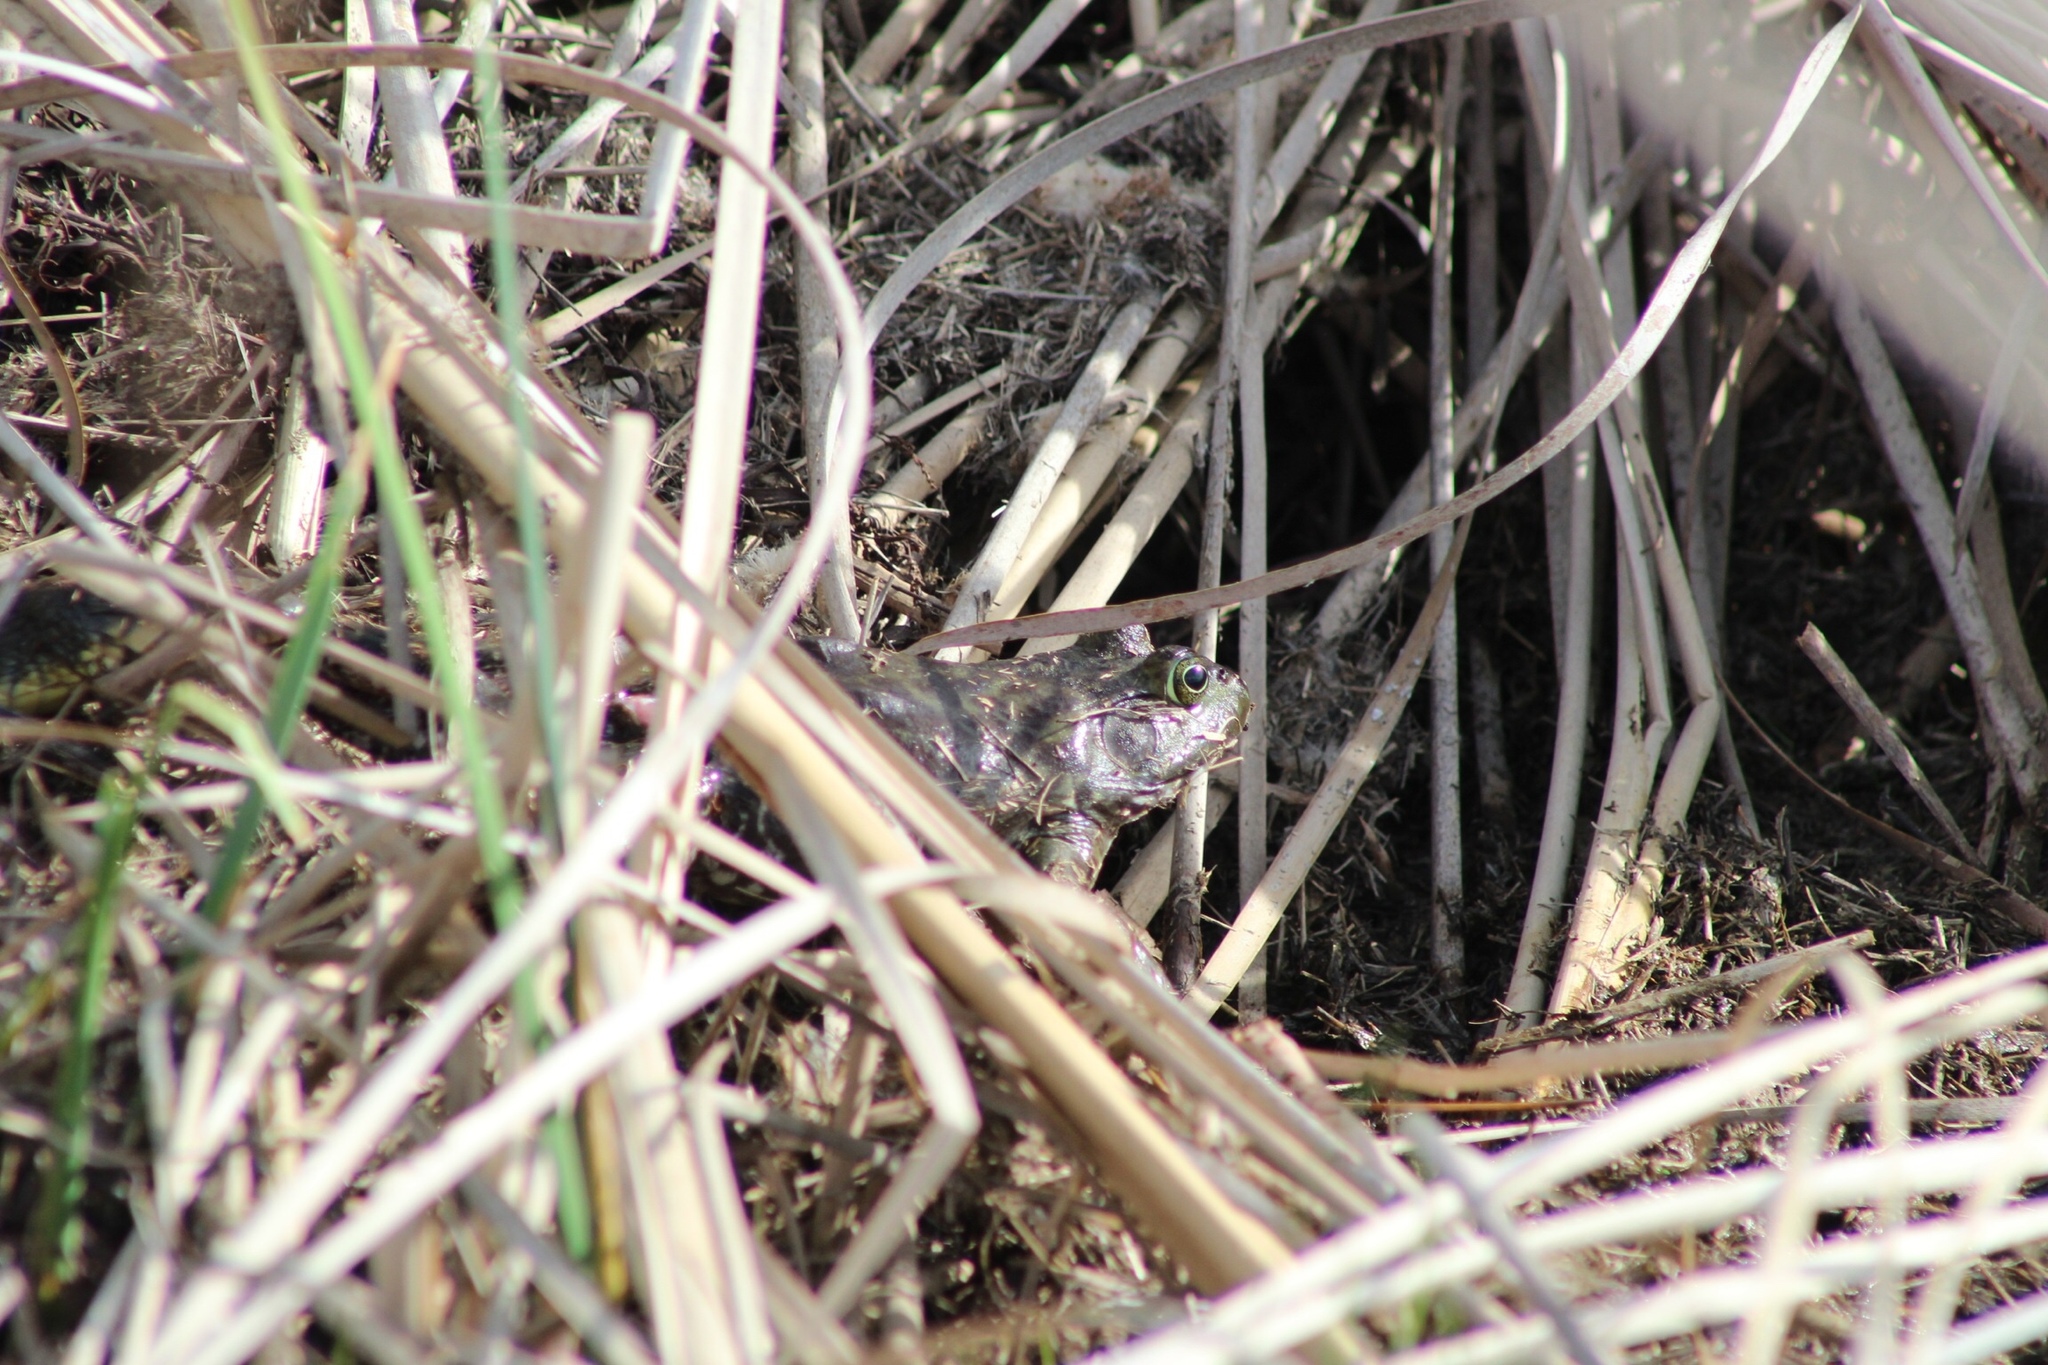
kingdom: Animalia
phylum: Chordata
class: Amphibia
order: Anura
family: Ranidae
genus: Lithobates
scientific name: Lithobates catesbeianus
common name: American bullfrog
